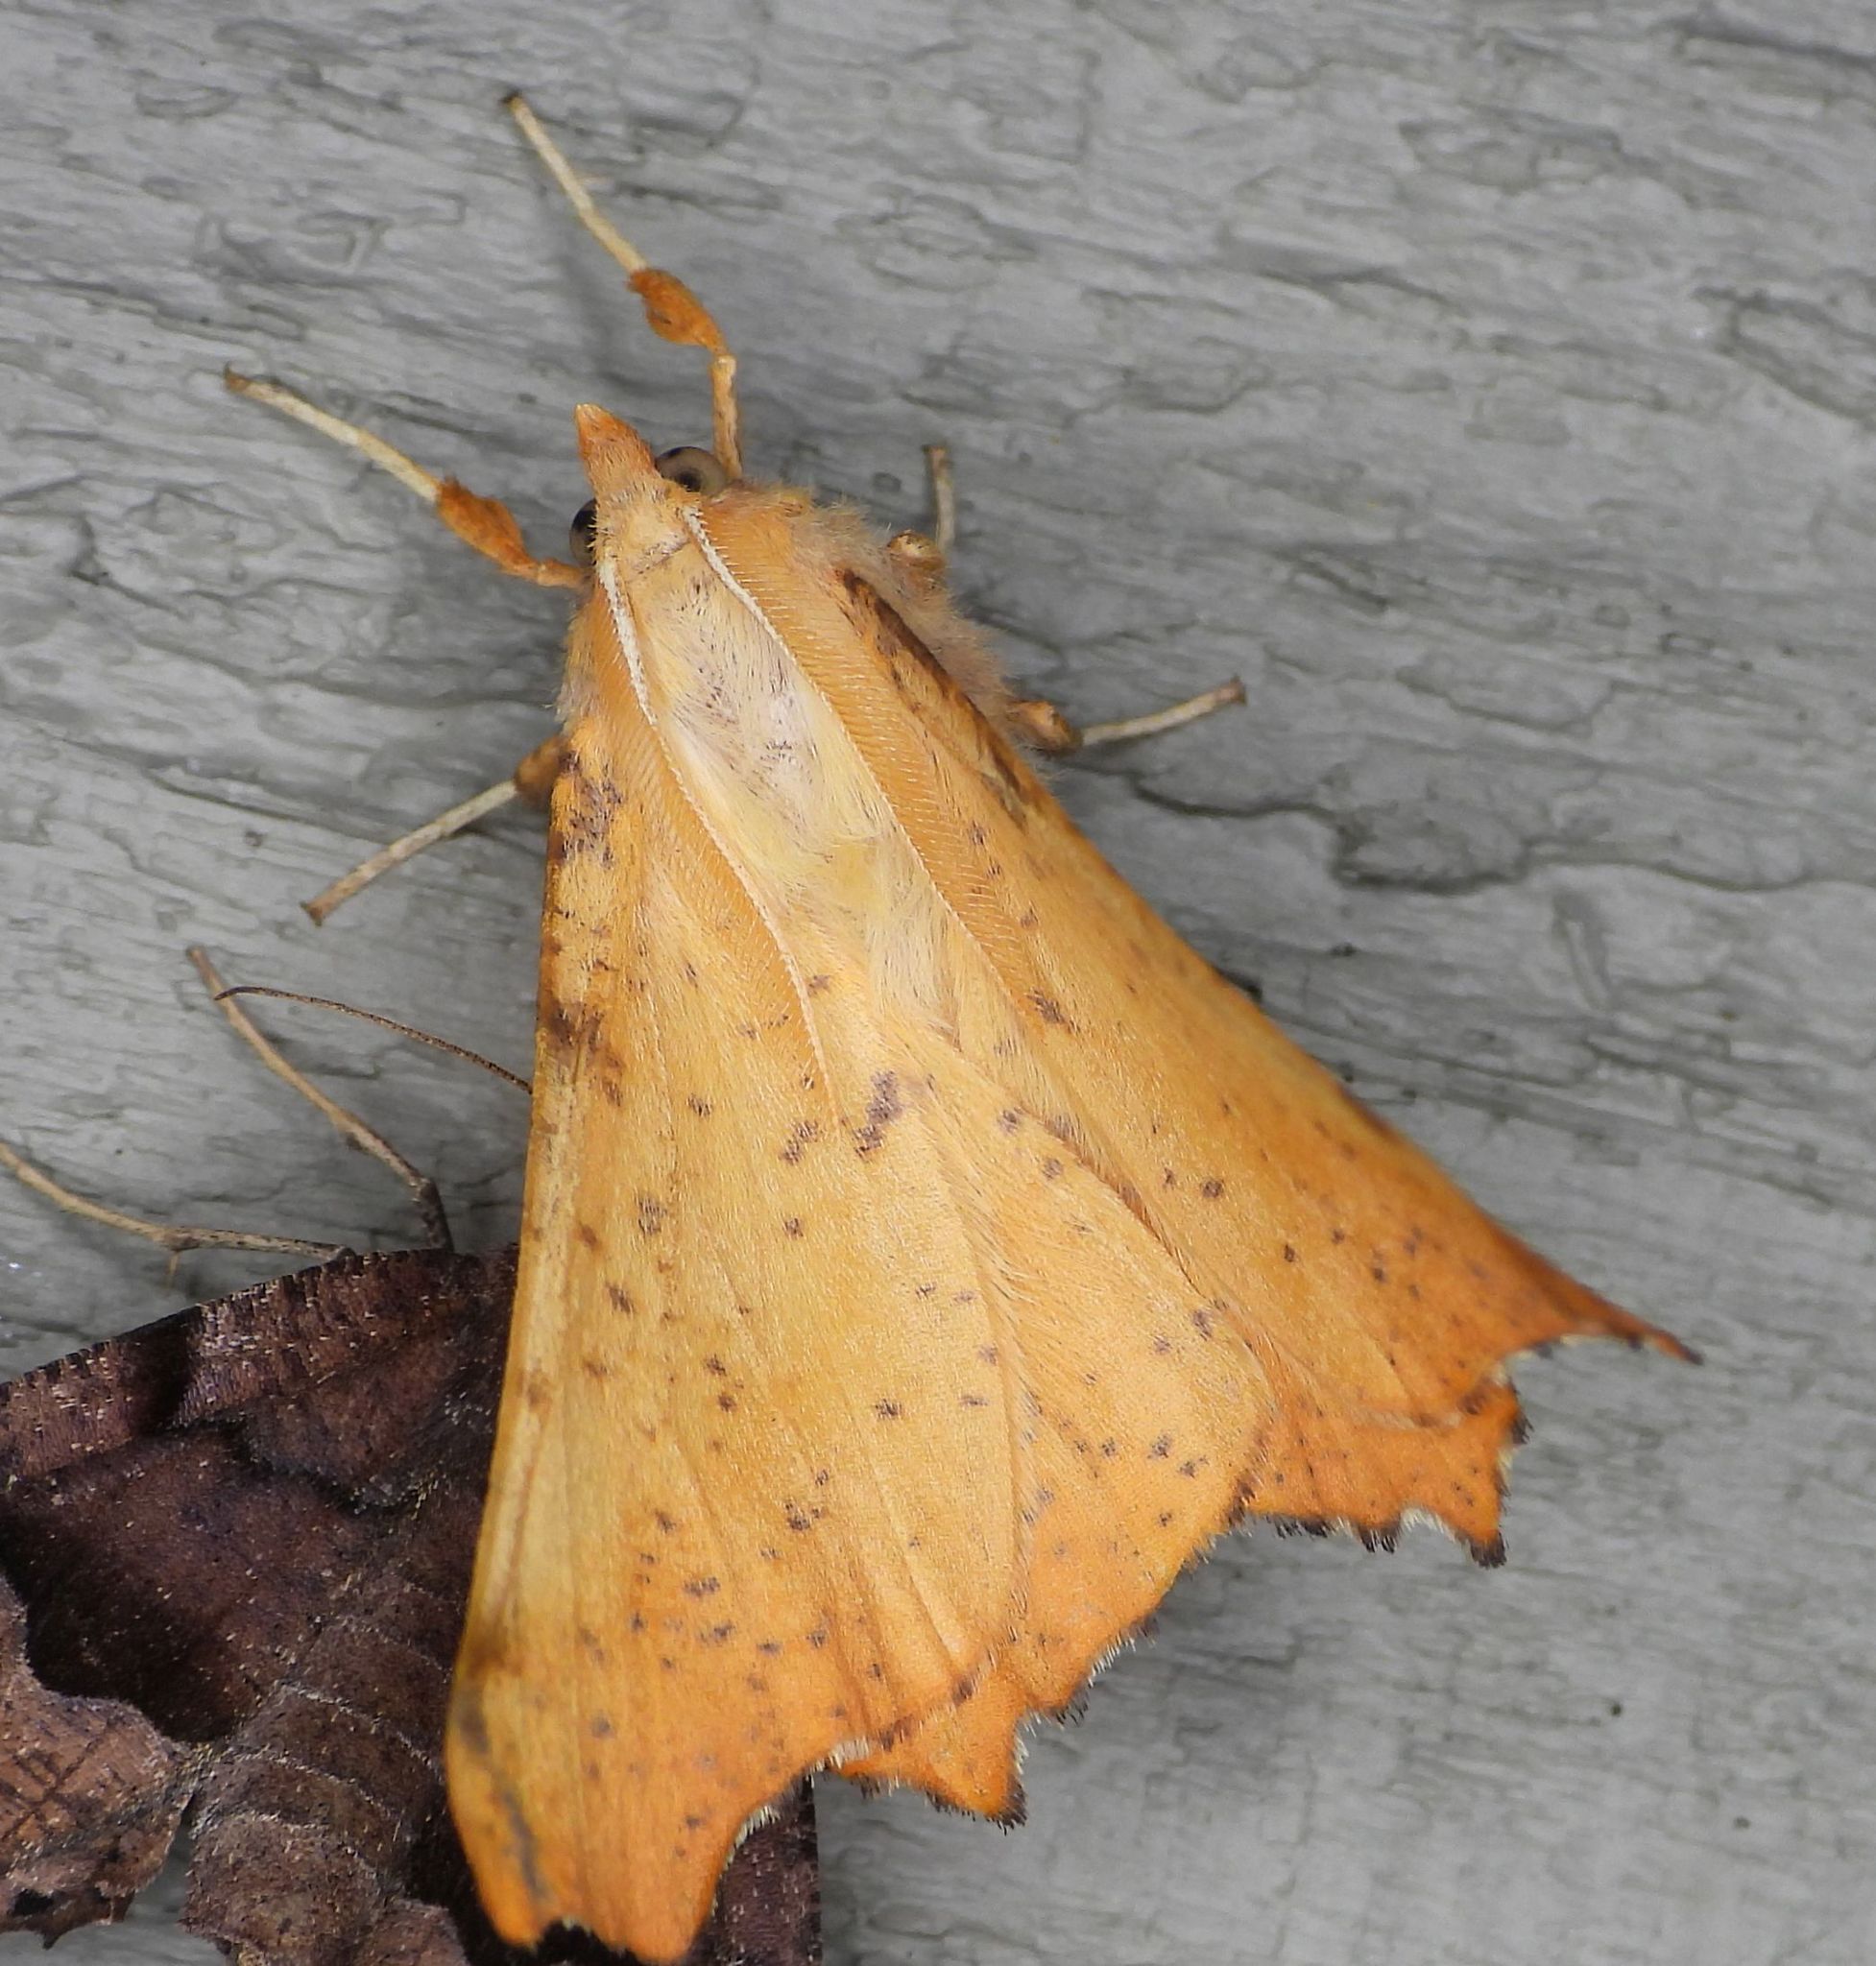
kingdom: Animalia
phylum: Arthropoda
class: Insecta
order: Lepidoptera
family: Geometridae
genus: Ennomos
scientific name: Ennomos magnaria
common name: Maple spanworm
